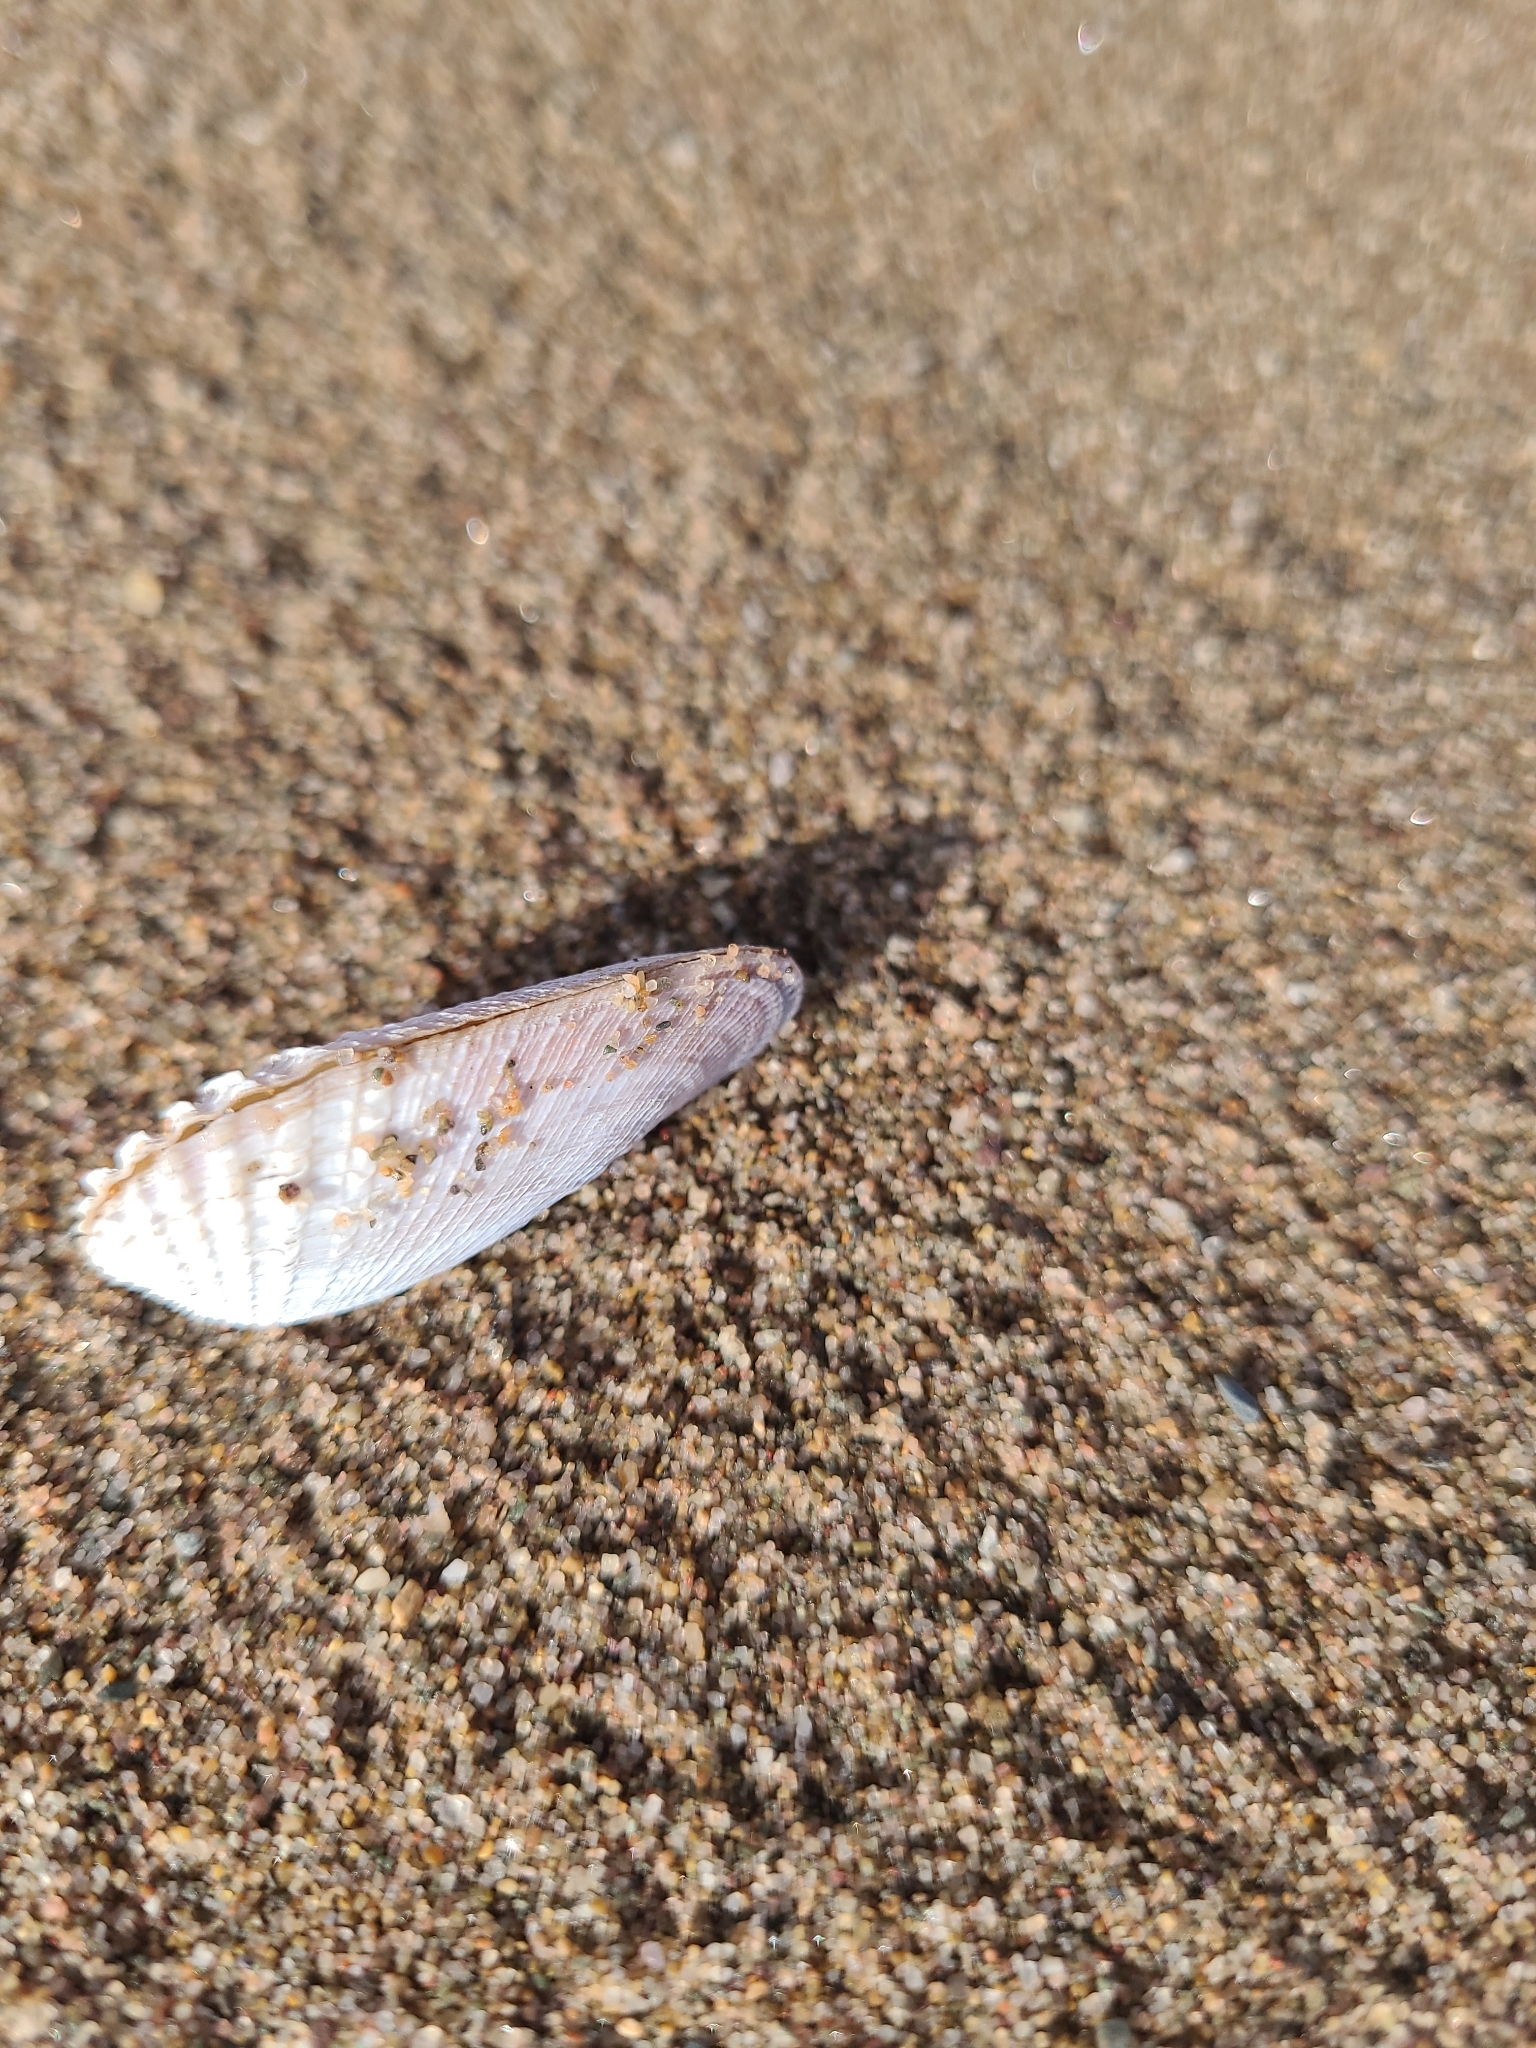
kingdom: Animalia
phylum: Mollusca
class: Bivalvia
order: Venerida
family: Veneridae
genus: Petricolaria
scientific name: Petricolaria pholadiformis
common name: American piddock
